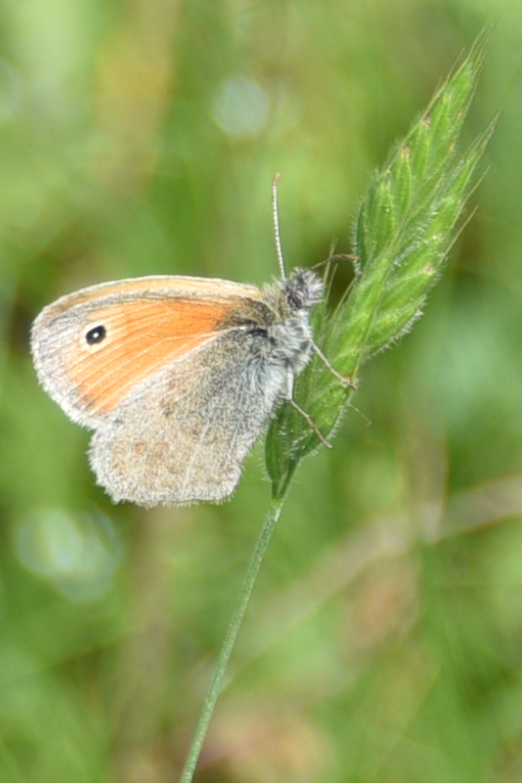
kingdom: Animalia
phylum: Arthropoda
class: Insecta
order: Lepidoptera
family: Nymphalidae
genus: Coenonympha
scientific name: Coenonympha pamphilus
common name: Small heath
